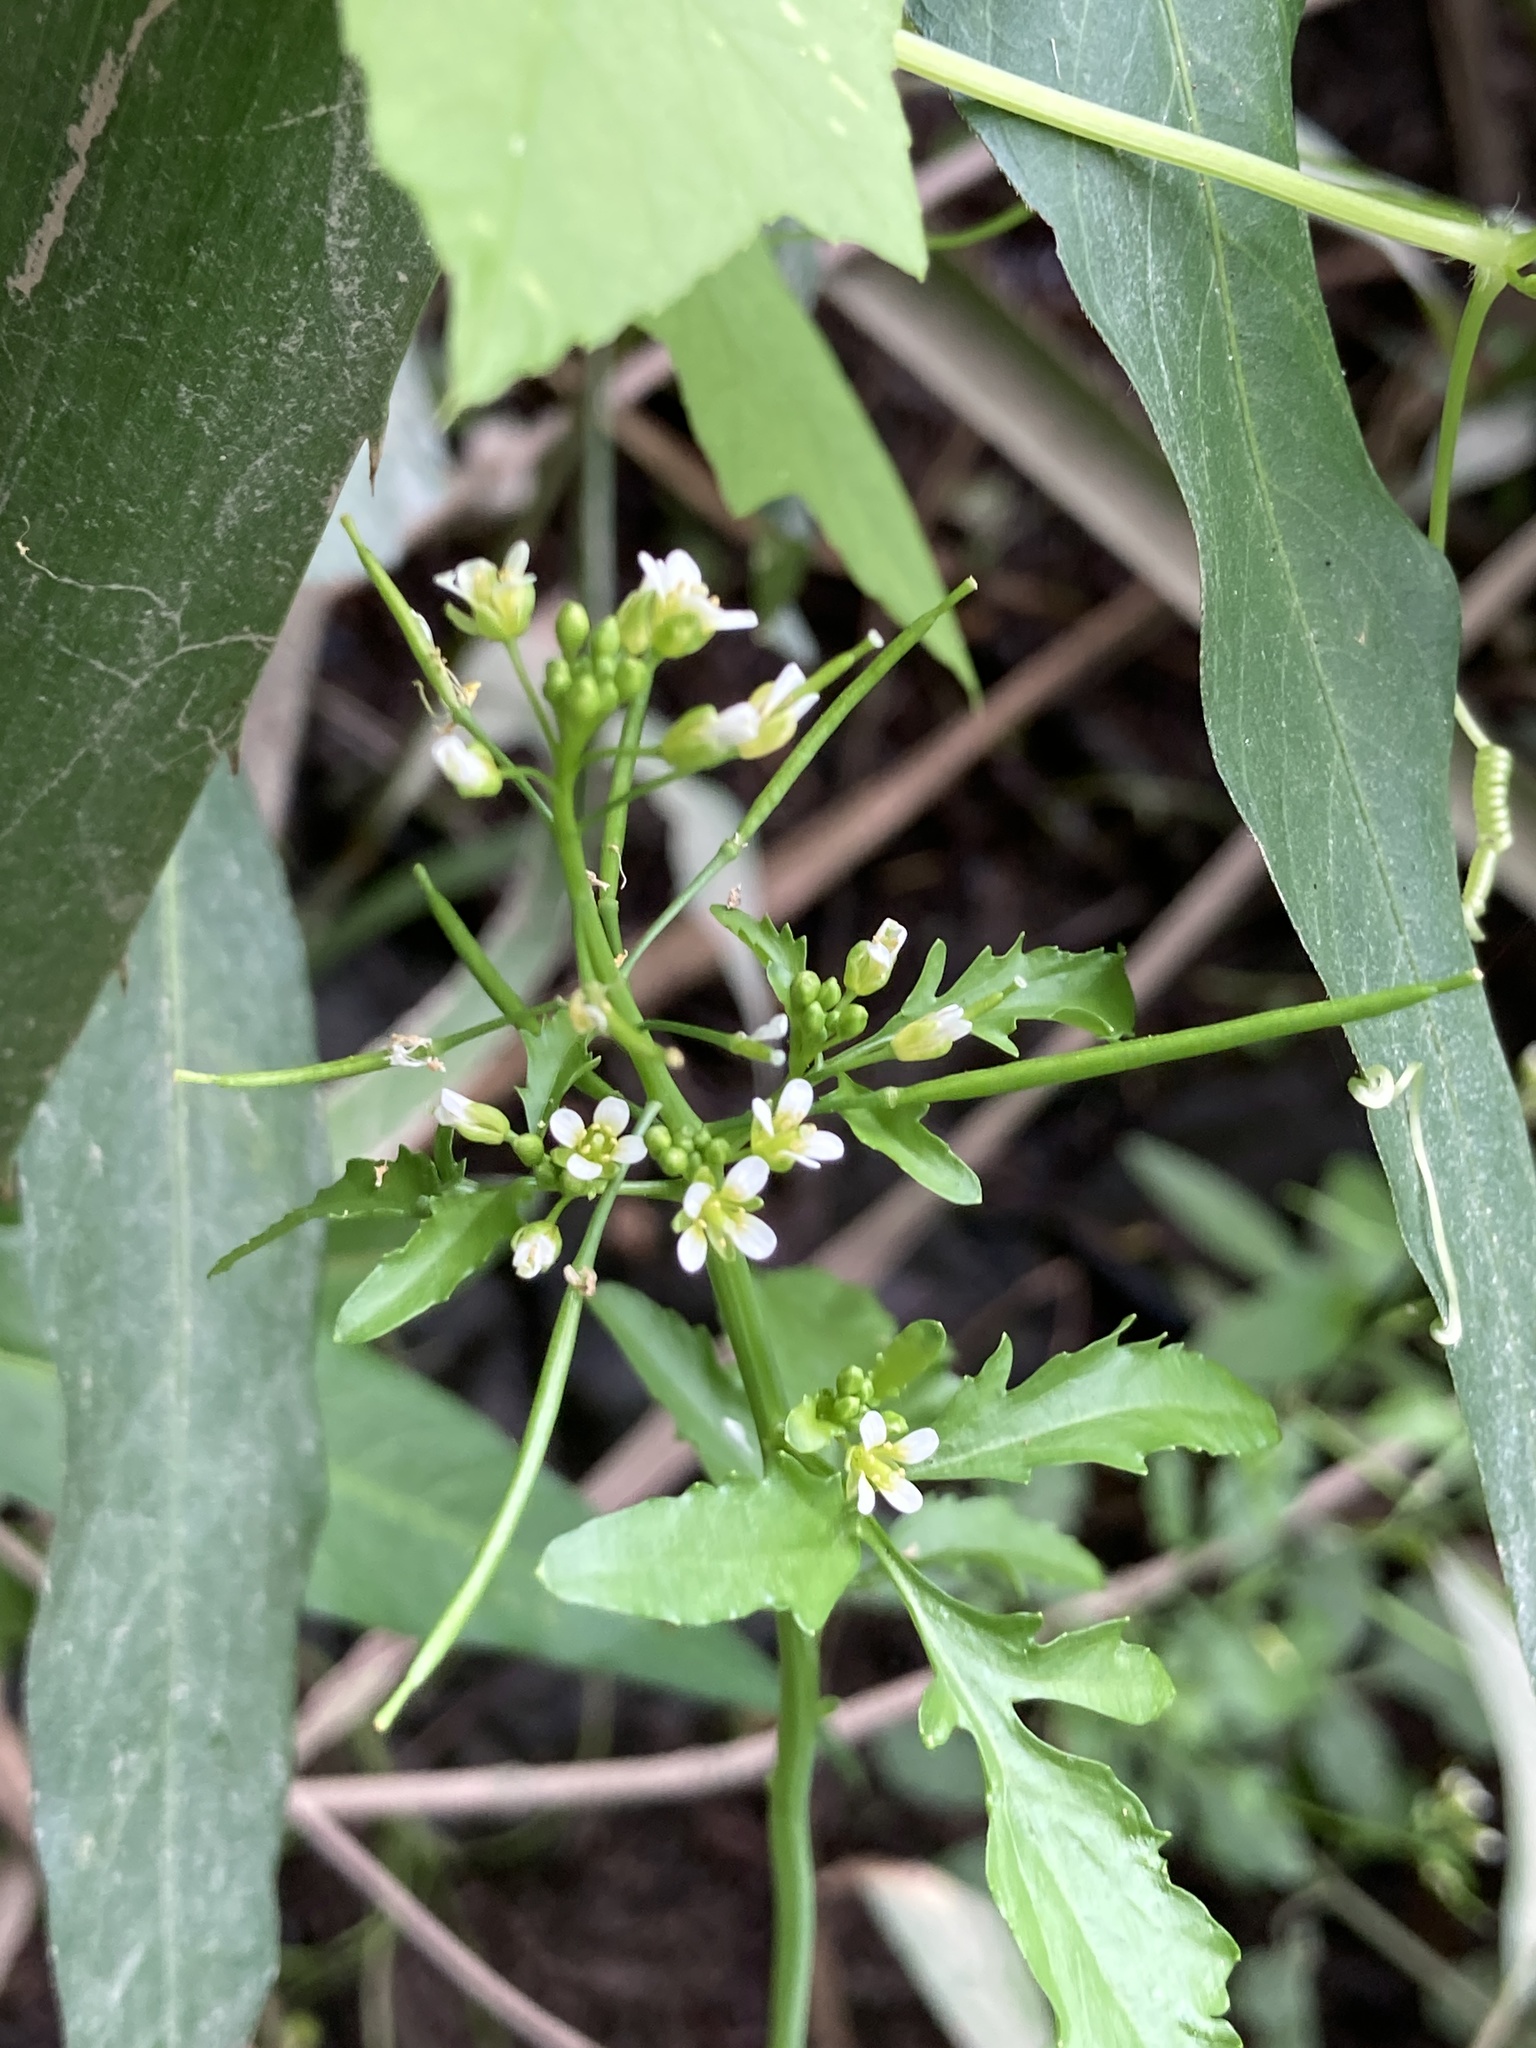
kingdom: Plantae
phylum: Tracheophyta
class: Magnoliopsida
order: Brassicales
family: Brassicaceae
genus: Rorippa
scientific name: Rorippa hilariana
